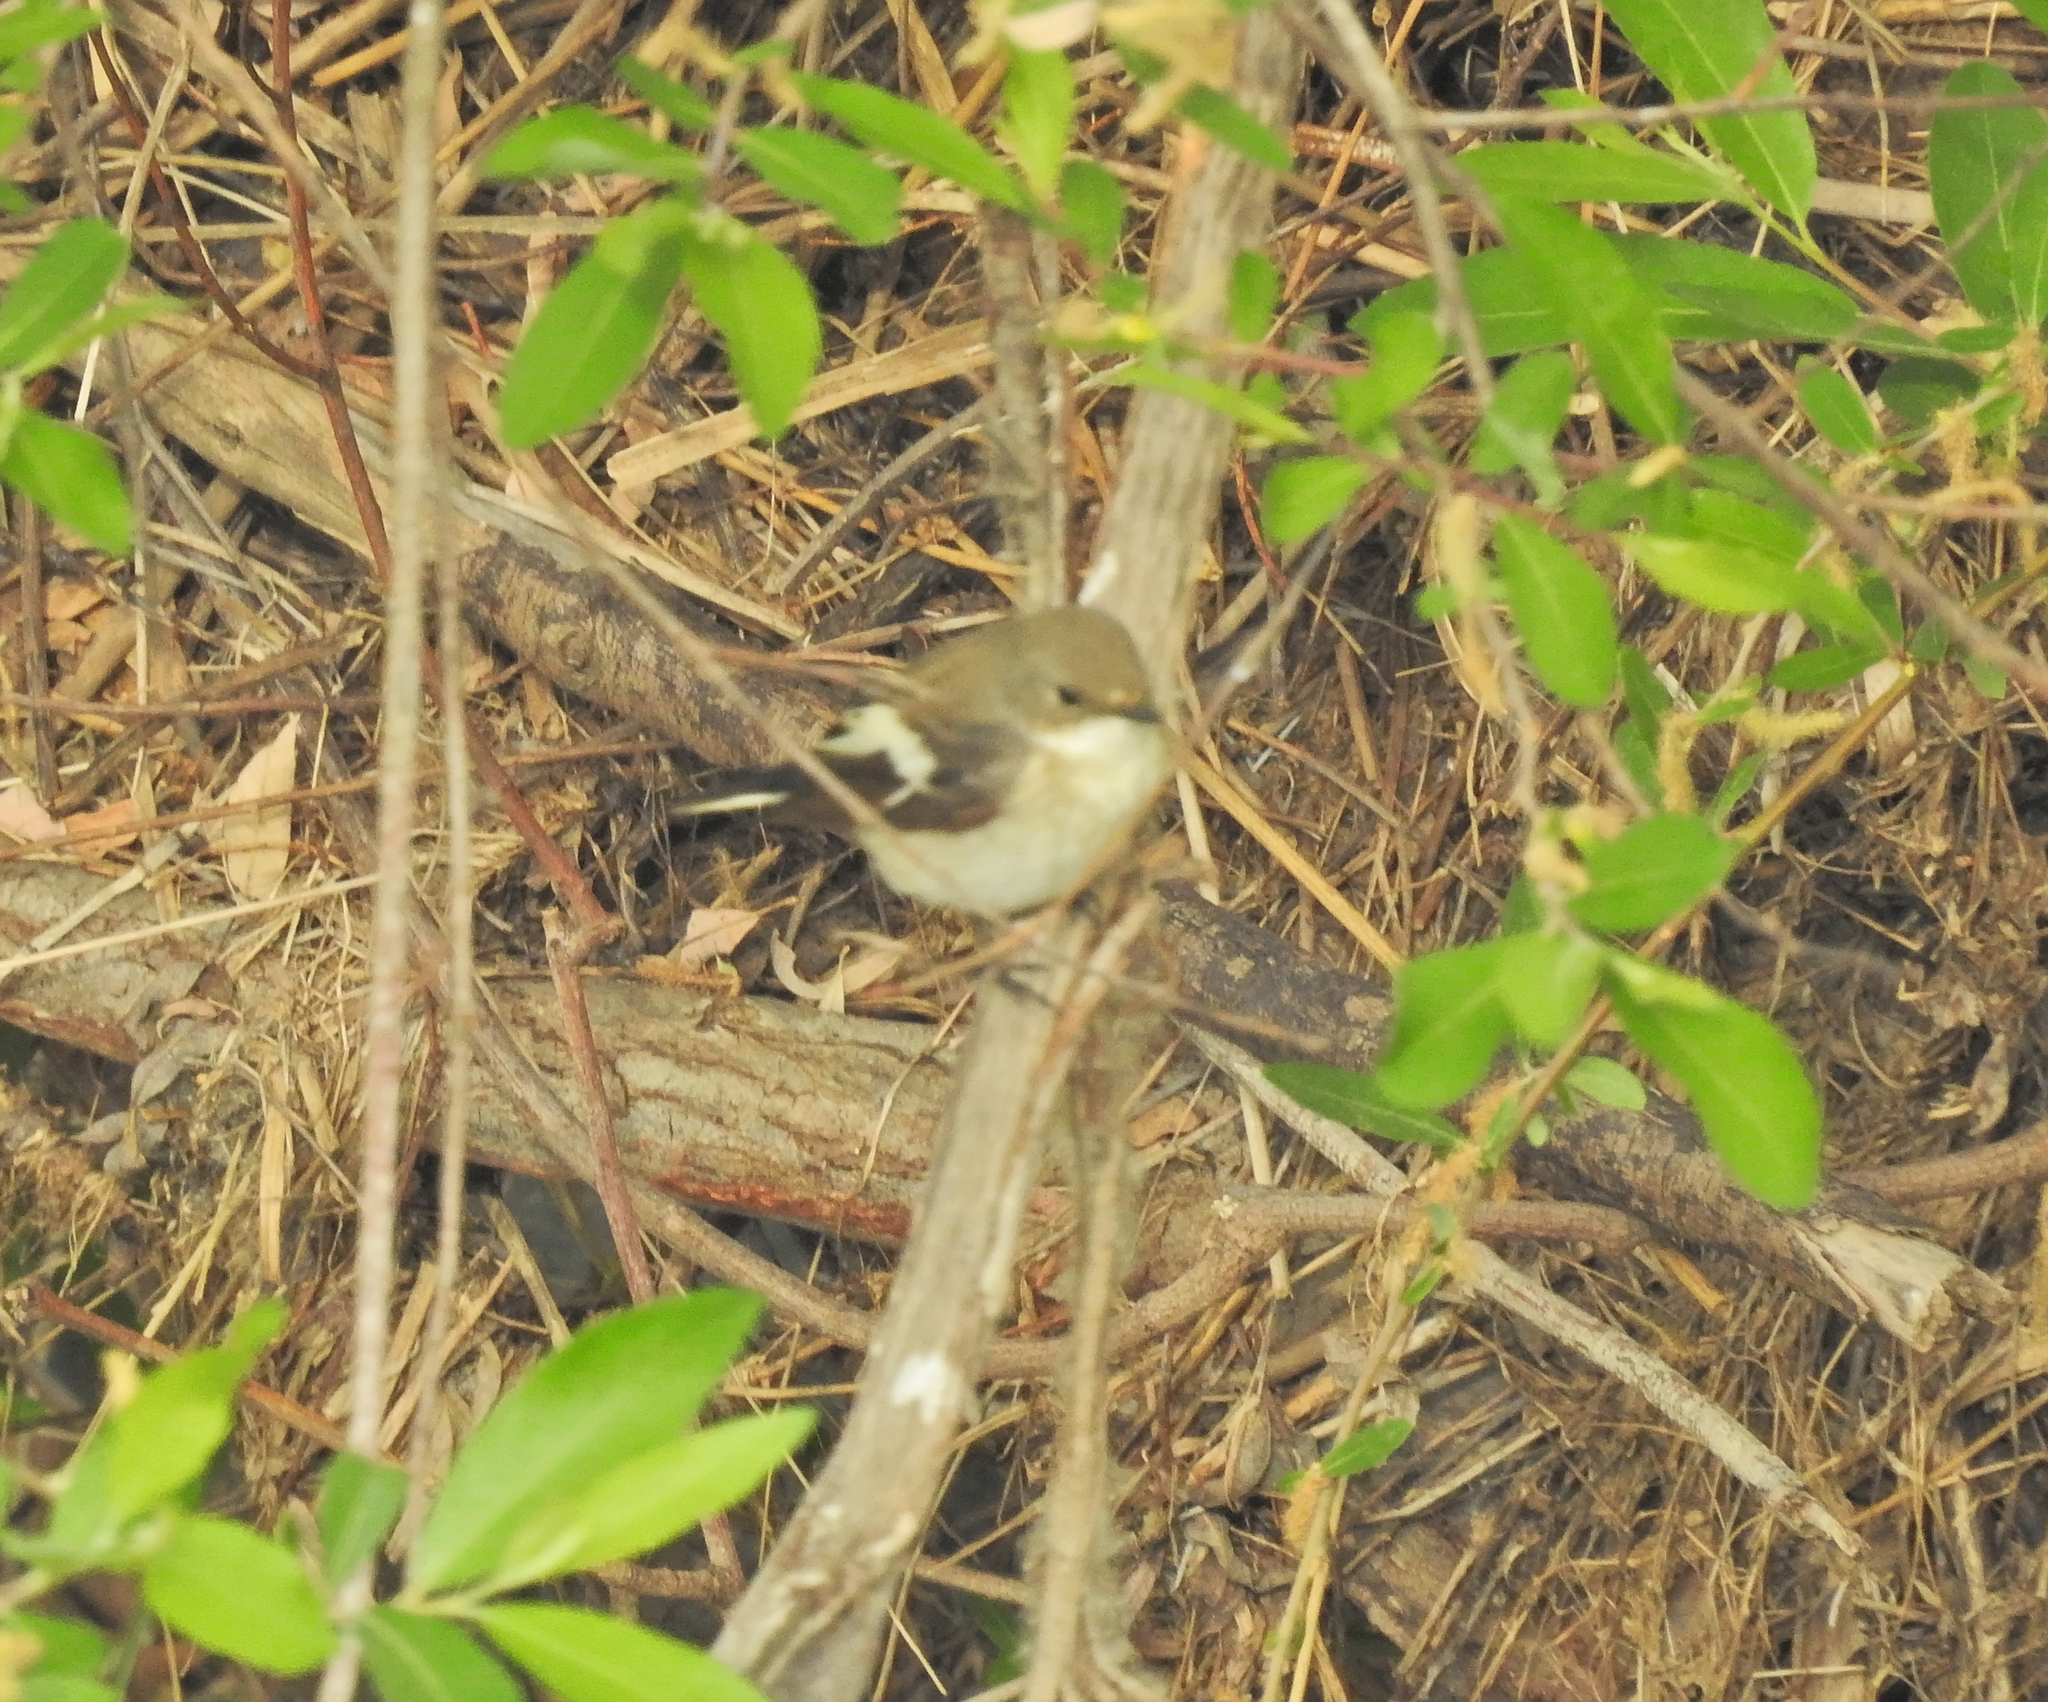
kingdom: Animalia
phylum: Chordata
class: Aves
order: Passeriformes
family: Muscicapidae
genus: Ficedula
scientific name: Ficedula hypoleuca
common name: European pied flycatcher
